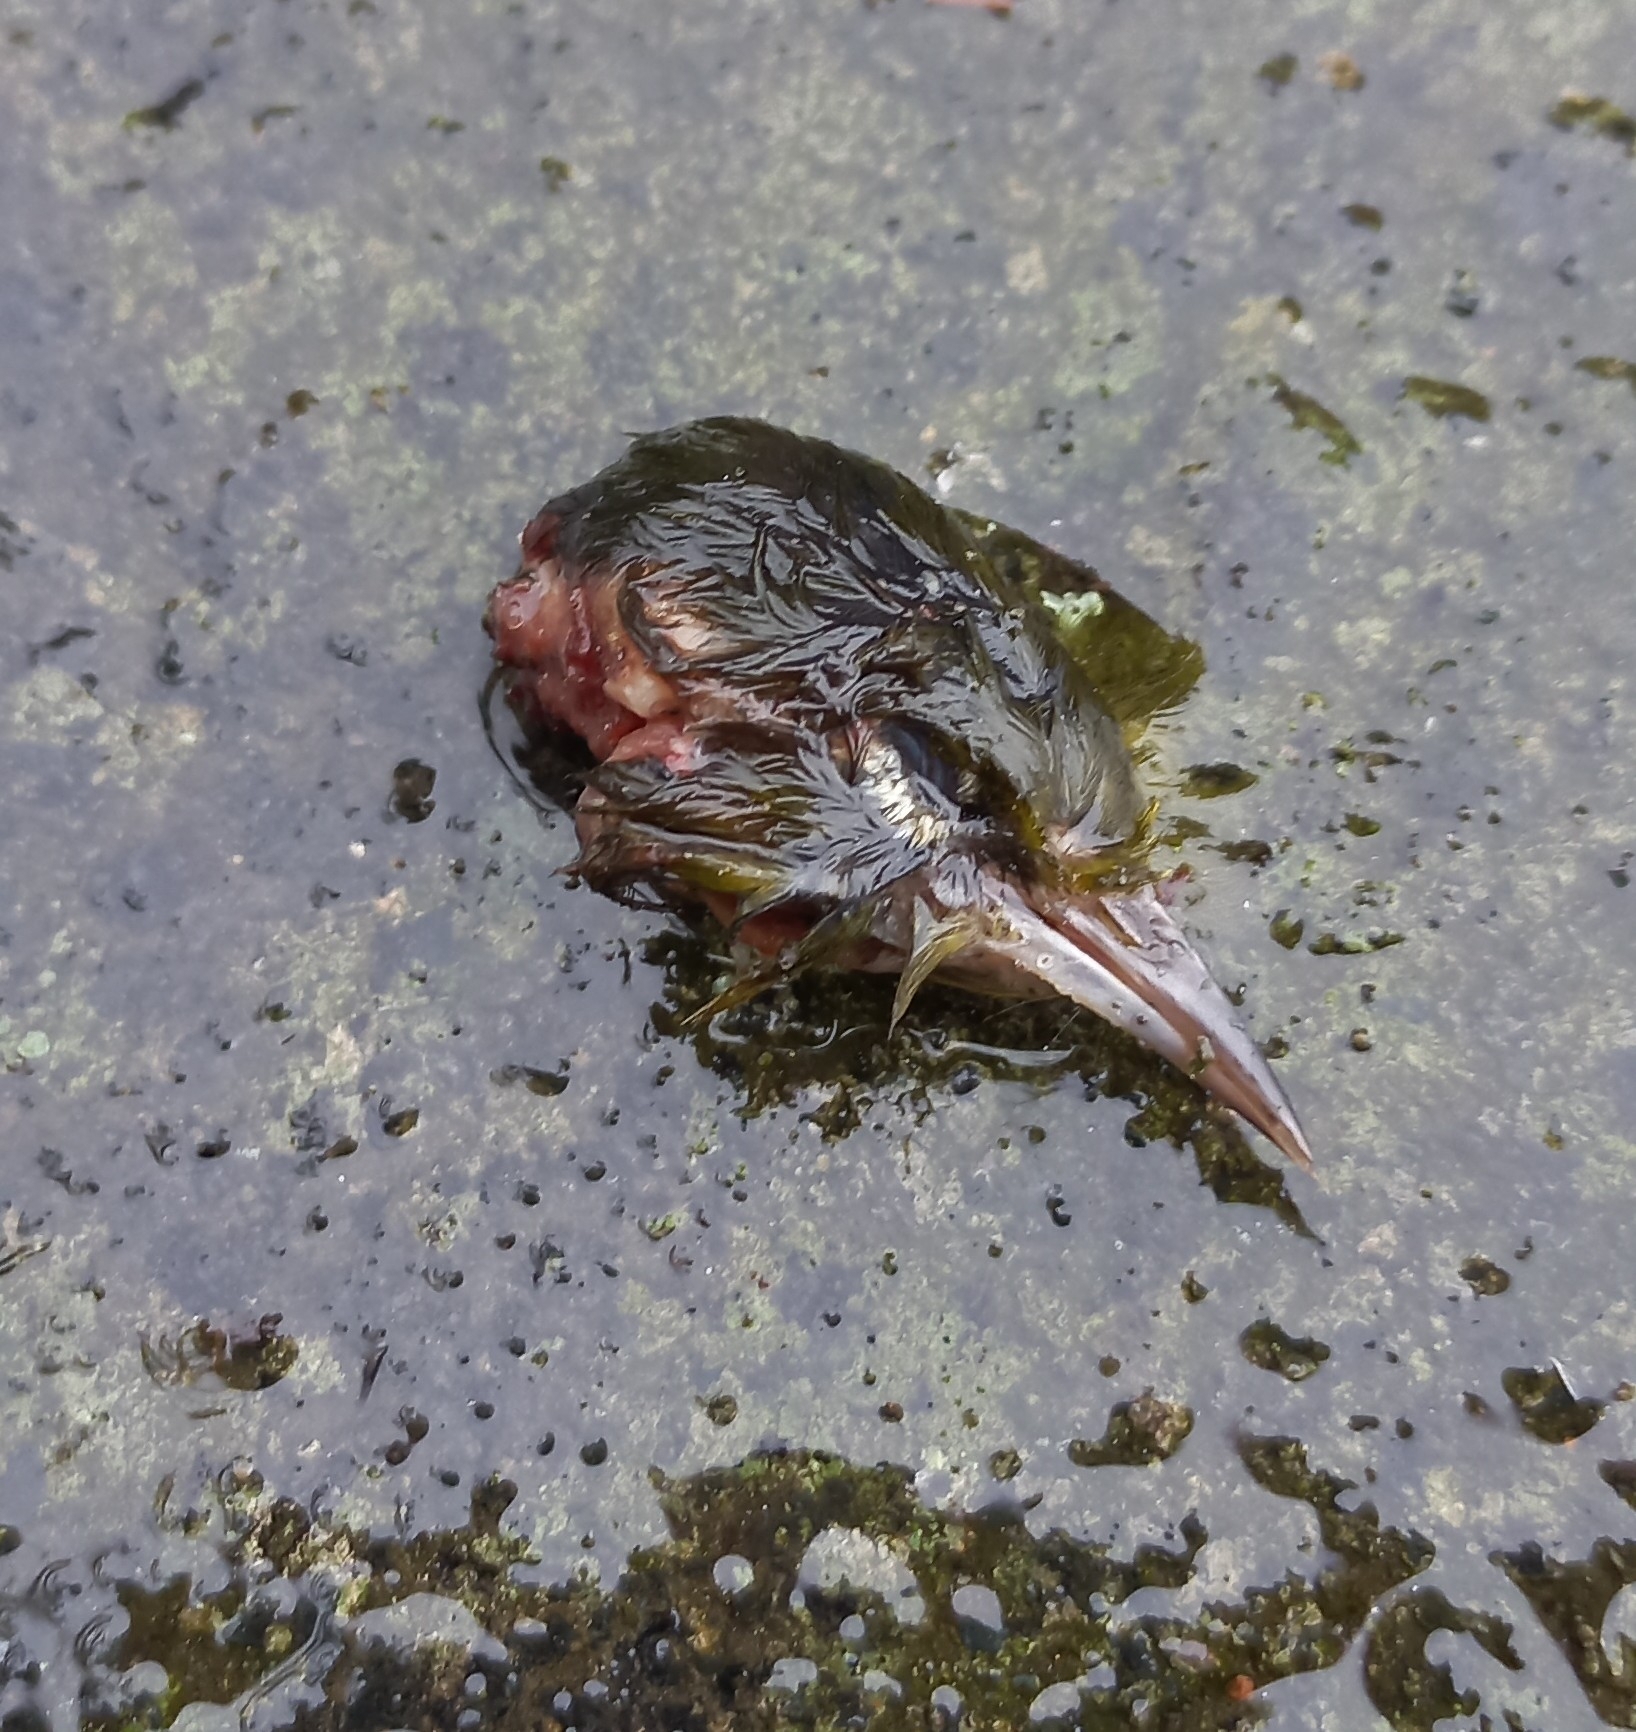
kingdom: Animalia
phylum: Chordata
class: Aves
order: Passeriformes
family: Zosteropidae
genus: Zosterops
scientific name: Zosterops lateralis
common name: Silvereye
